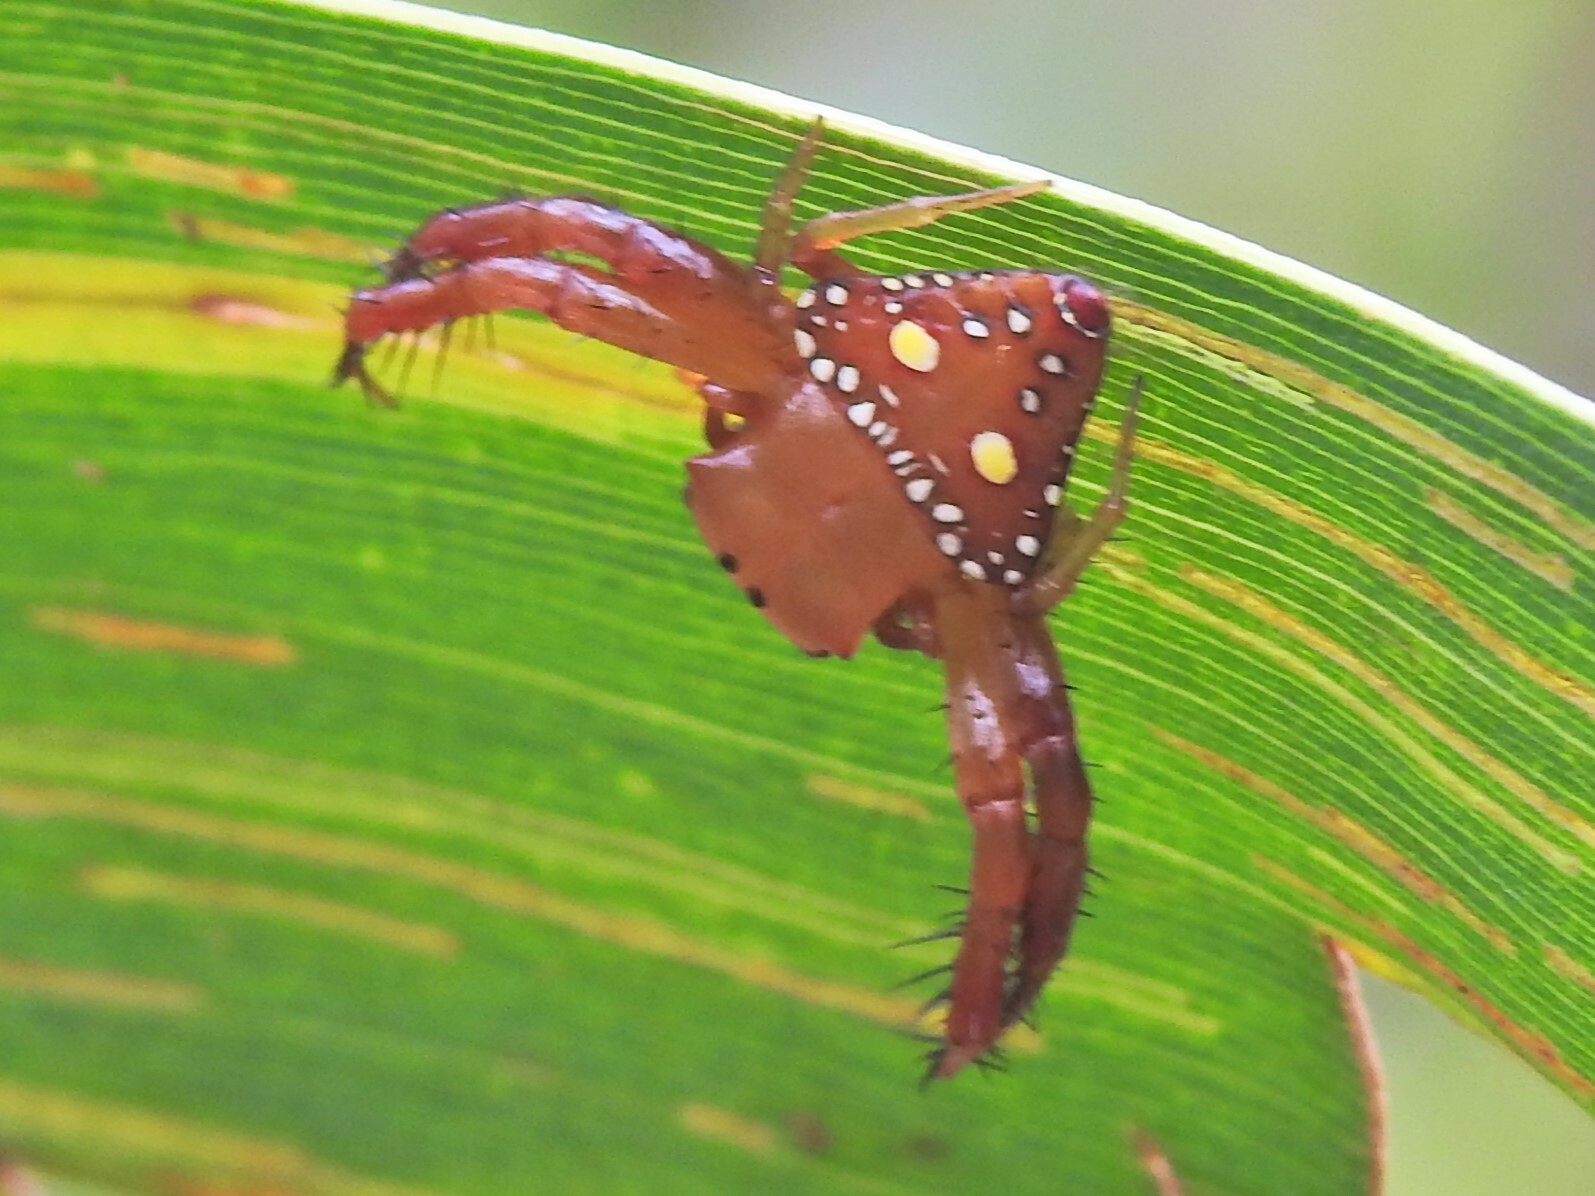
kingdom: Animalia
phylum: Arthropoda
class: Arachnida
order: Araneae
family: Arkyidae
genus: Arkys
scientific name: Arkys lancearius
